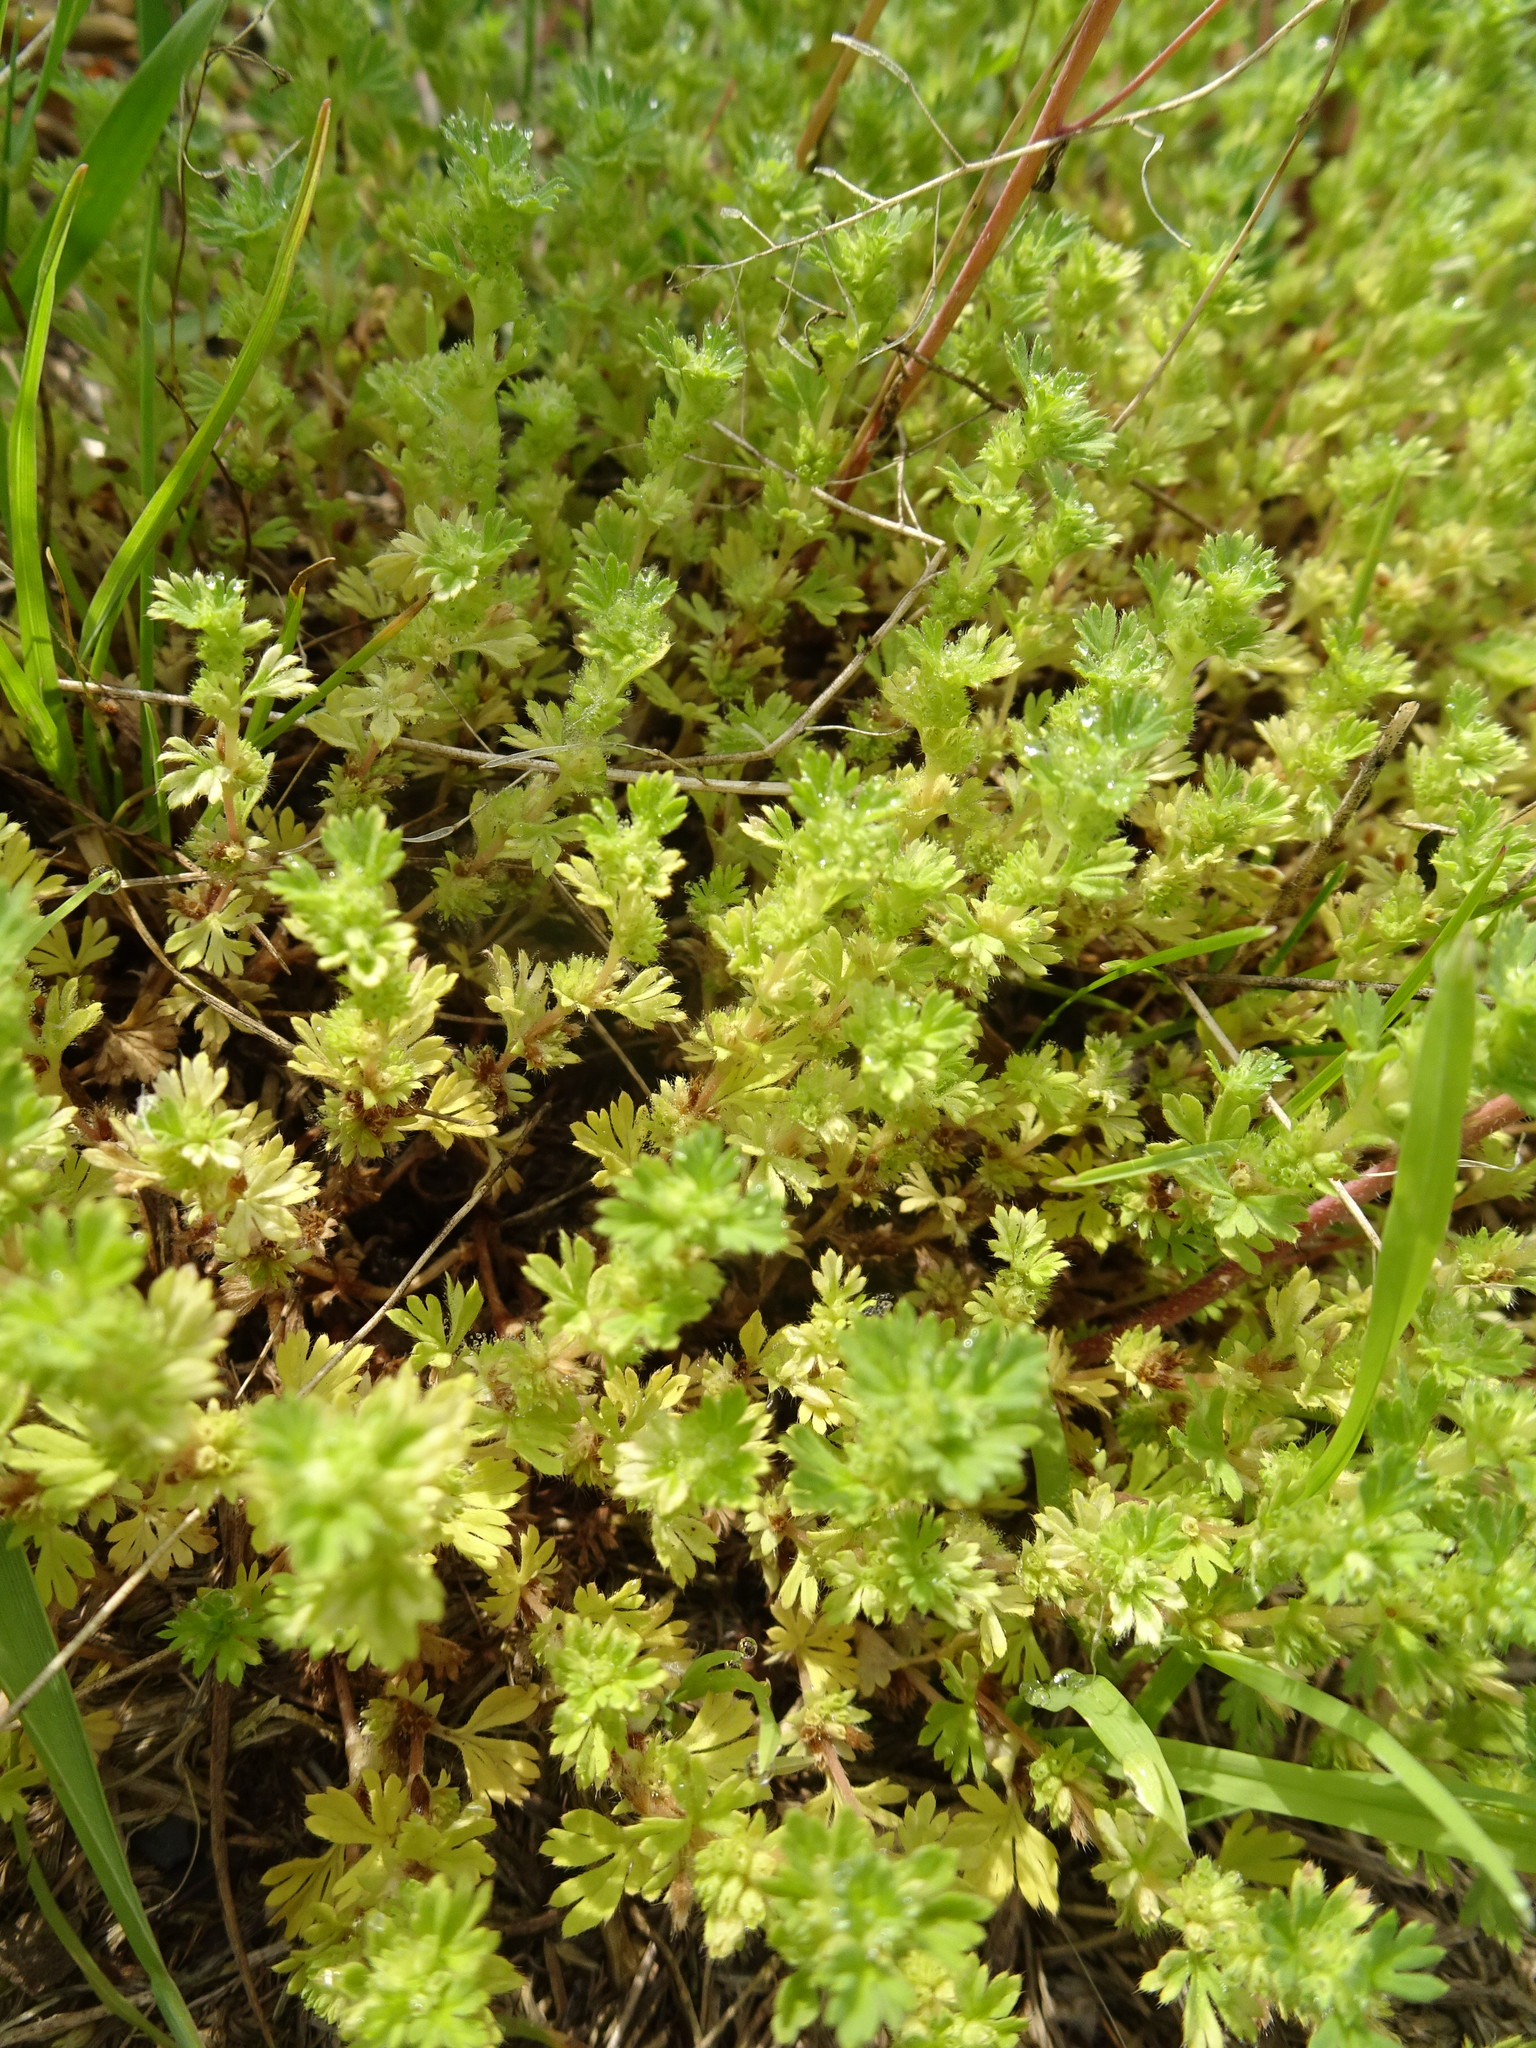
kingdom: Plantae
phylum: Tracheophyta
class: Magnoliopsida
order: Rosales
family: Rosaceae
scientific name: Rosaceae
